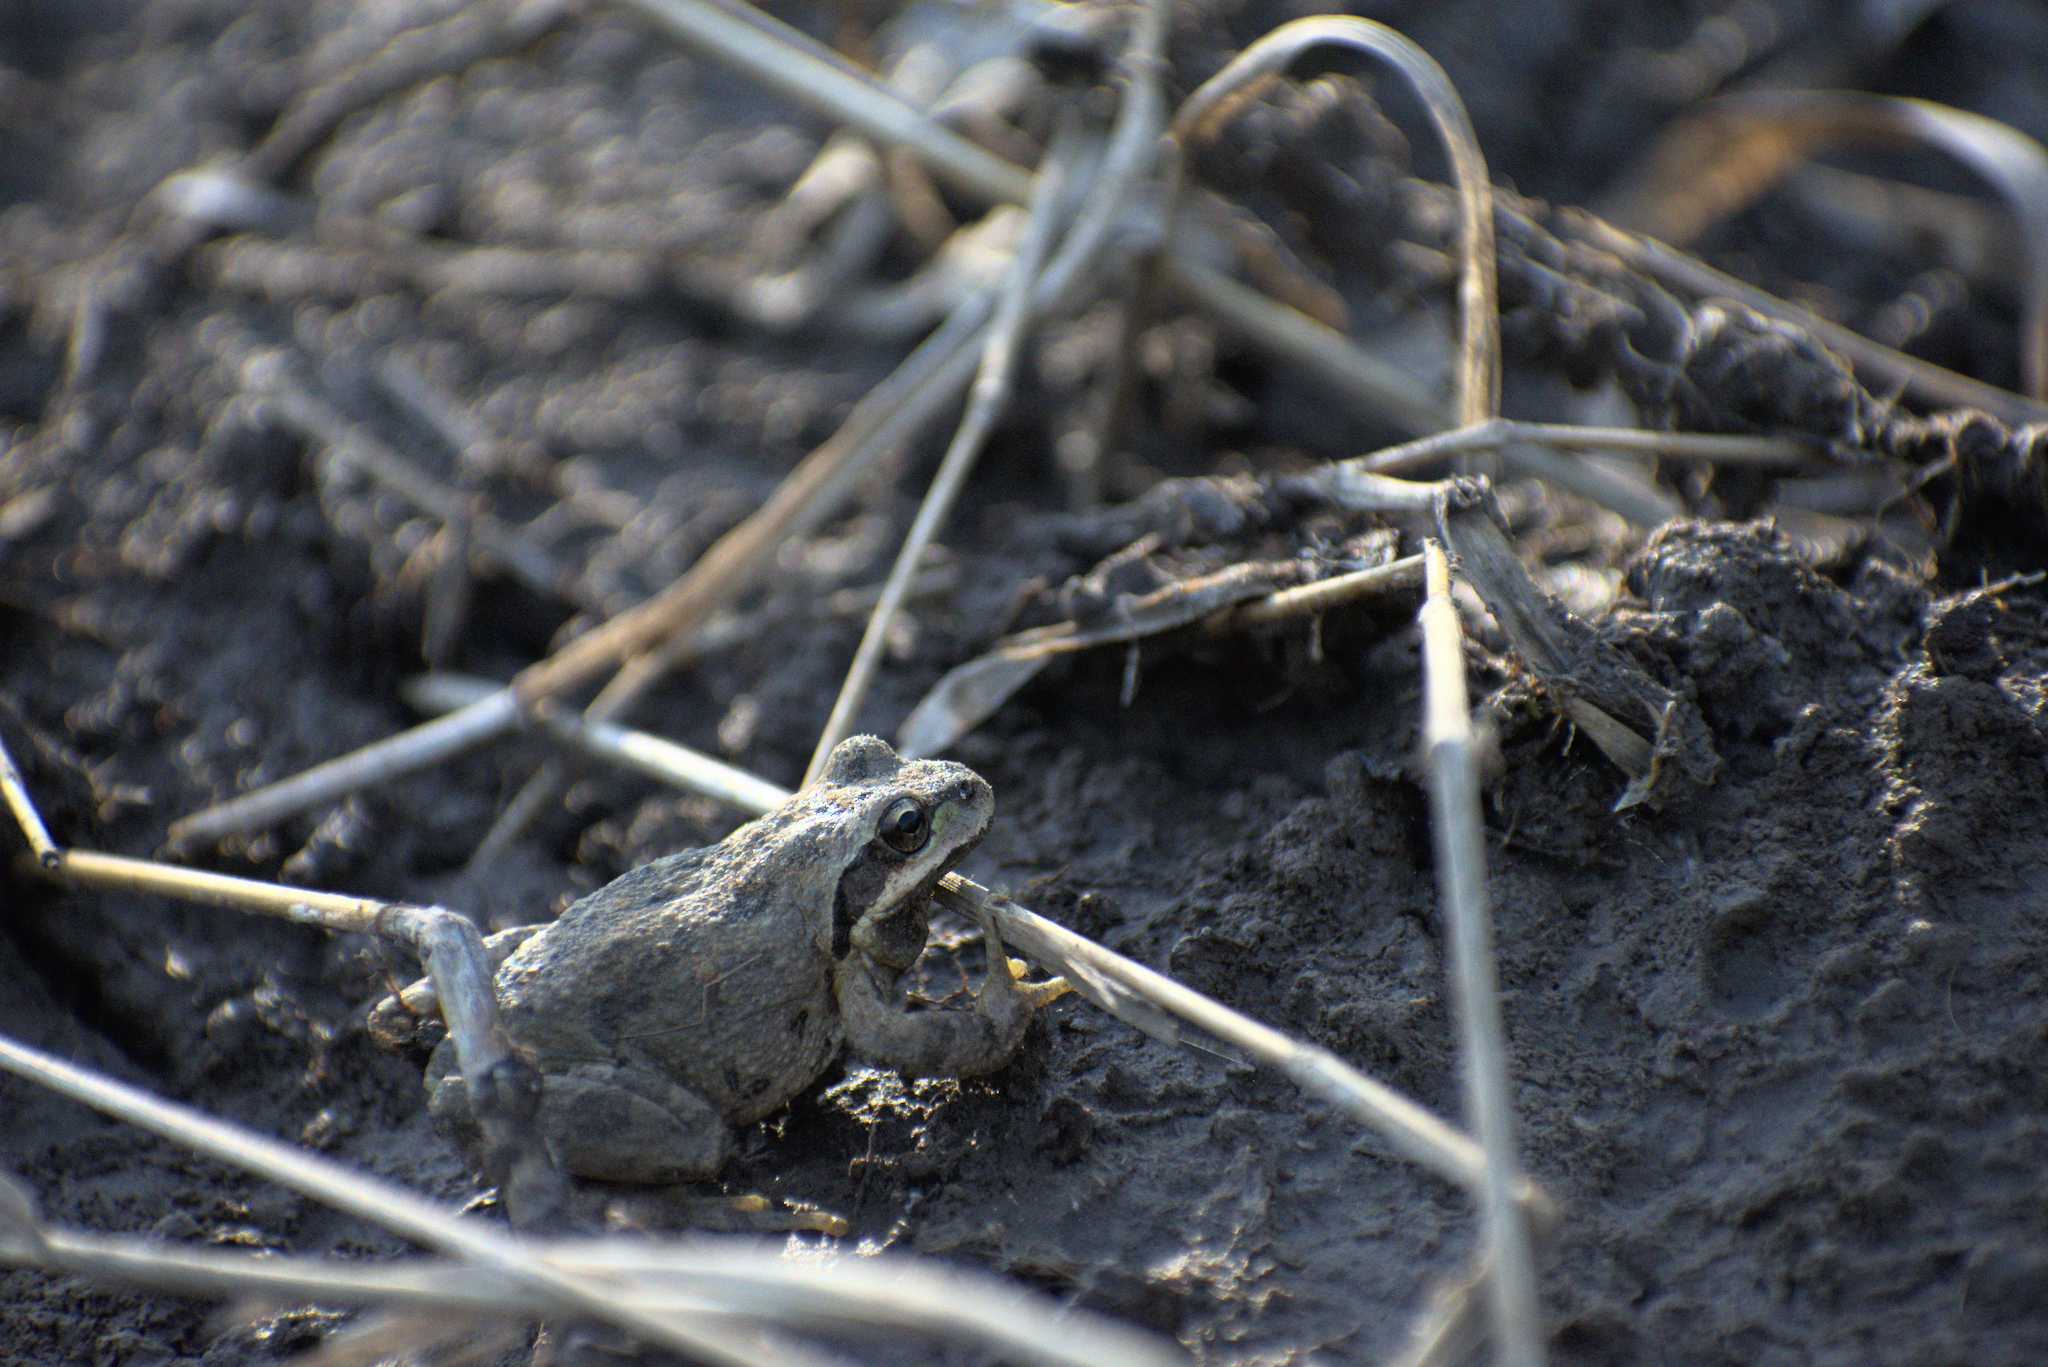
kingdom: Animalia
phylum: Chordata
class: Amphibia
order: Anura
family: Hylidae
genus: Pseudacris
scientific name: Pseudacris regilla
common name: Pacific chorus frog
